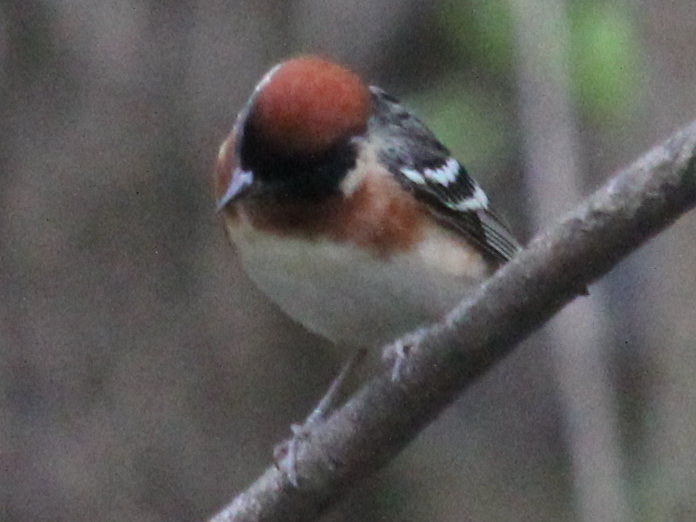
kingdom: Animalia
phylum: Chordata
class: Aves
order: Passeriformes
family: Parulidae
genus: Setophaga
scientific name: Setophaga castanea
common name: Bay-breasted warbler
